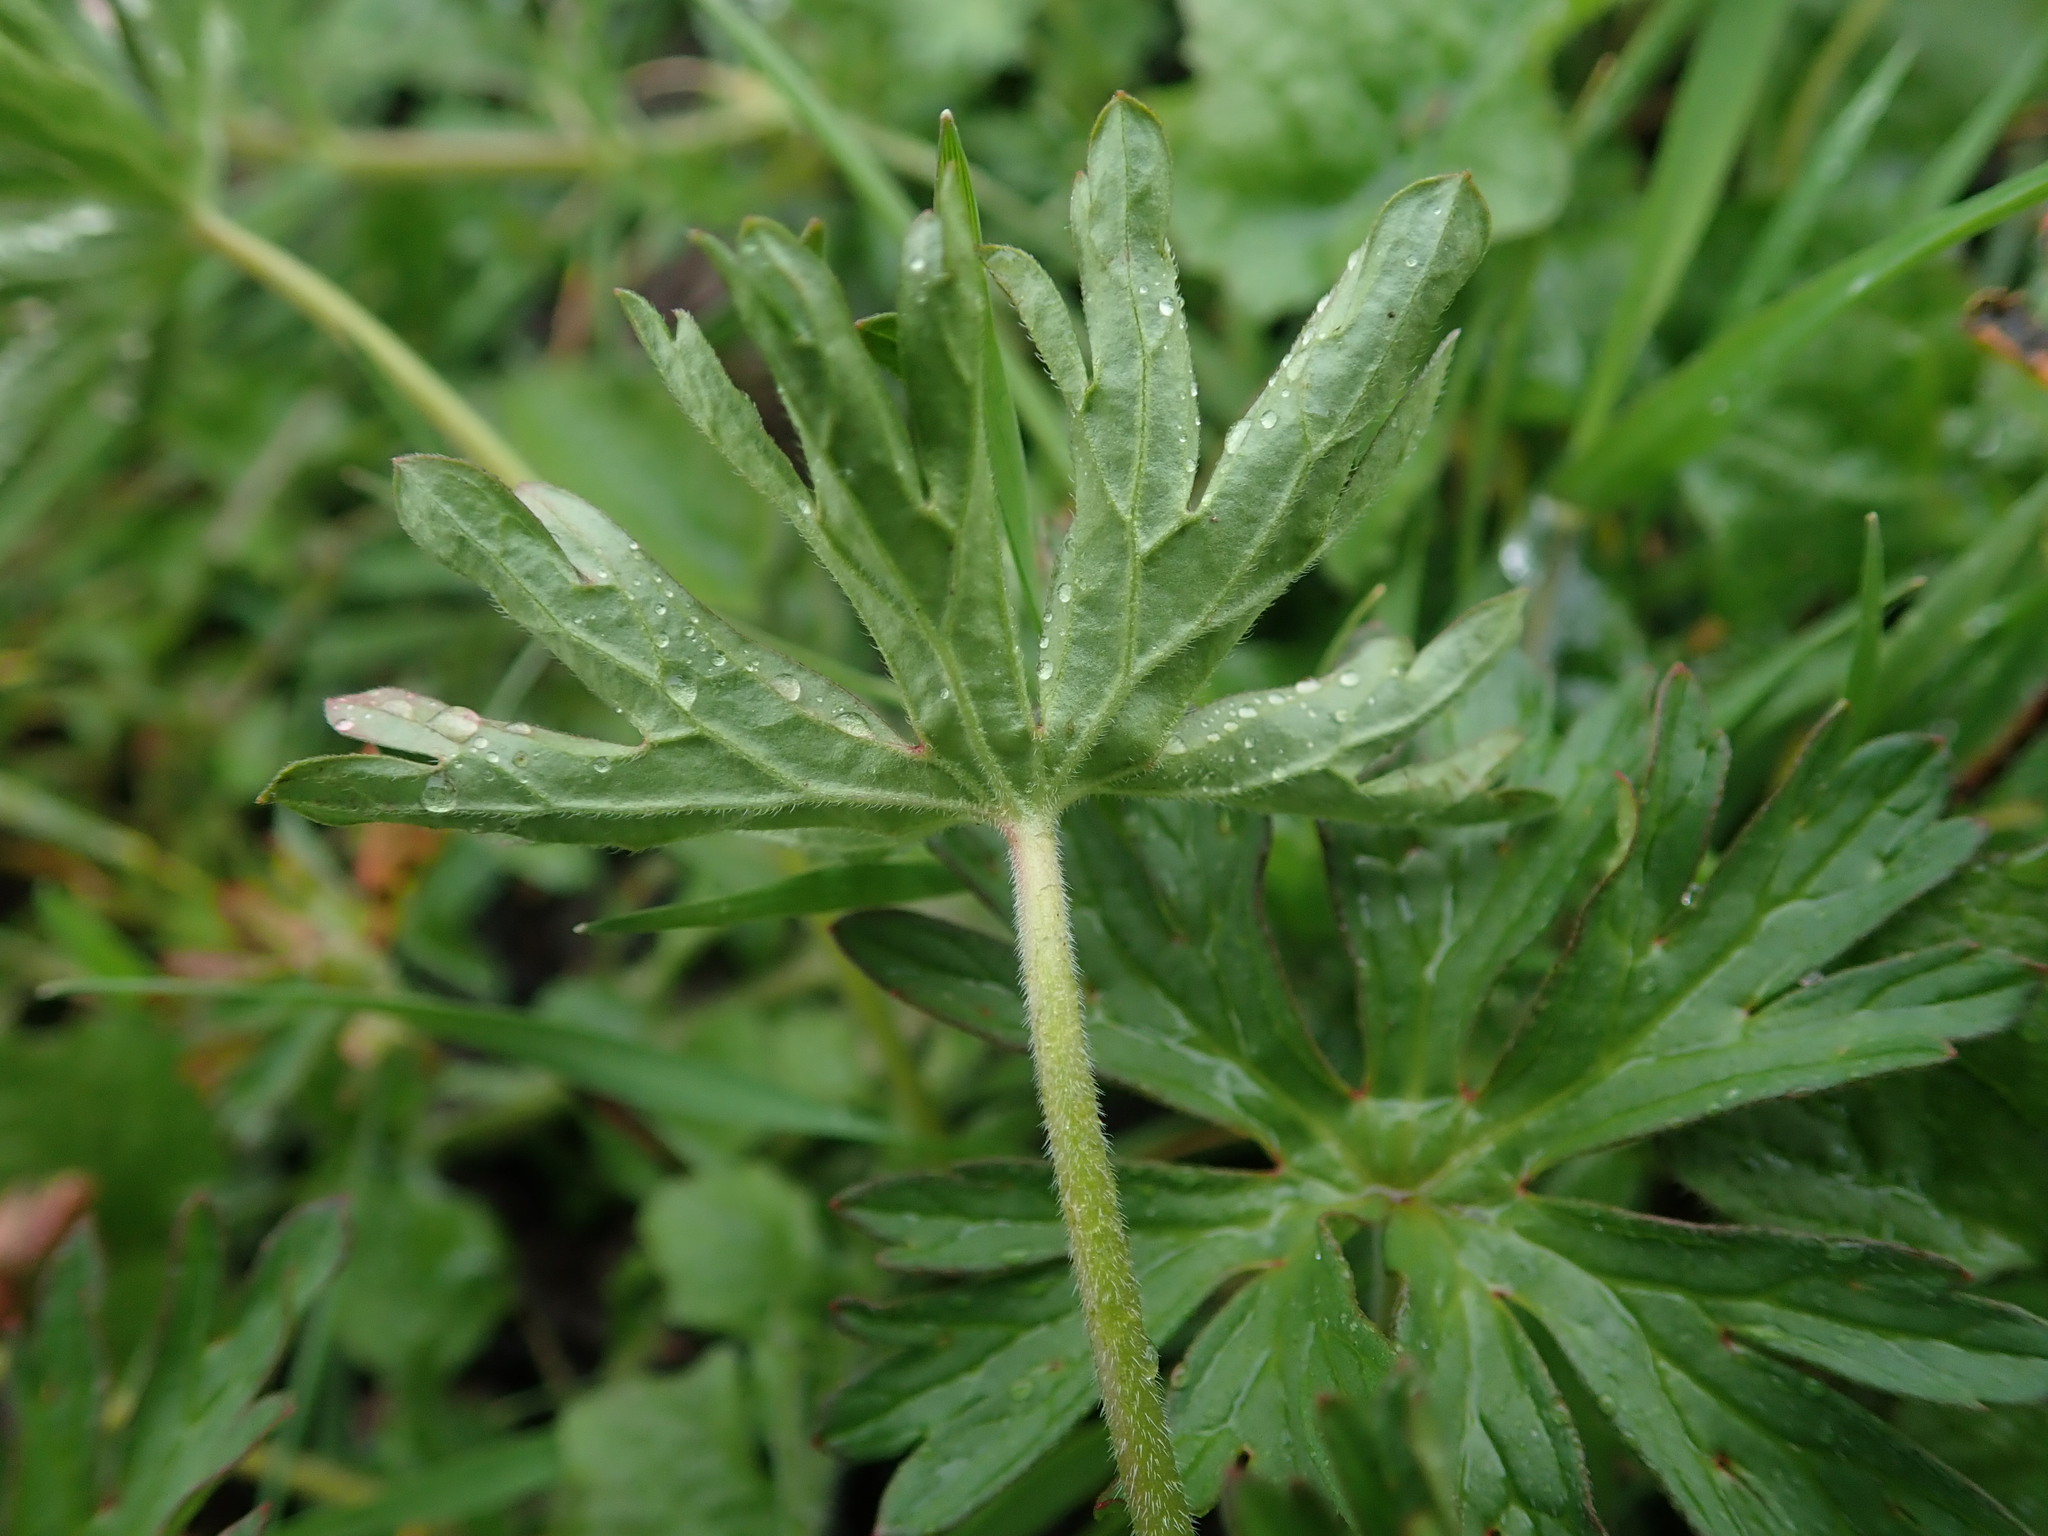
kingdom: Plantae
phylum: Tracheophyta
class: Magnoliopsida
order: Geraniales
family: Geraniaceae
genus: Geranium
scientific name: Geranium dissectum
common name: Cut-leaved crane's-bill
